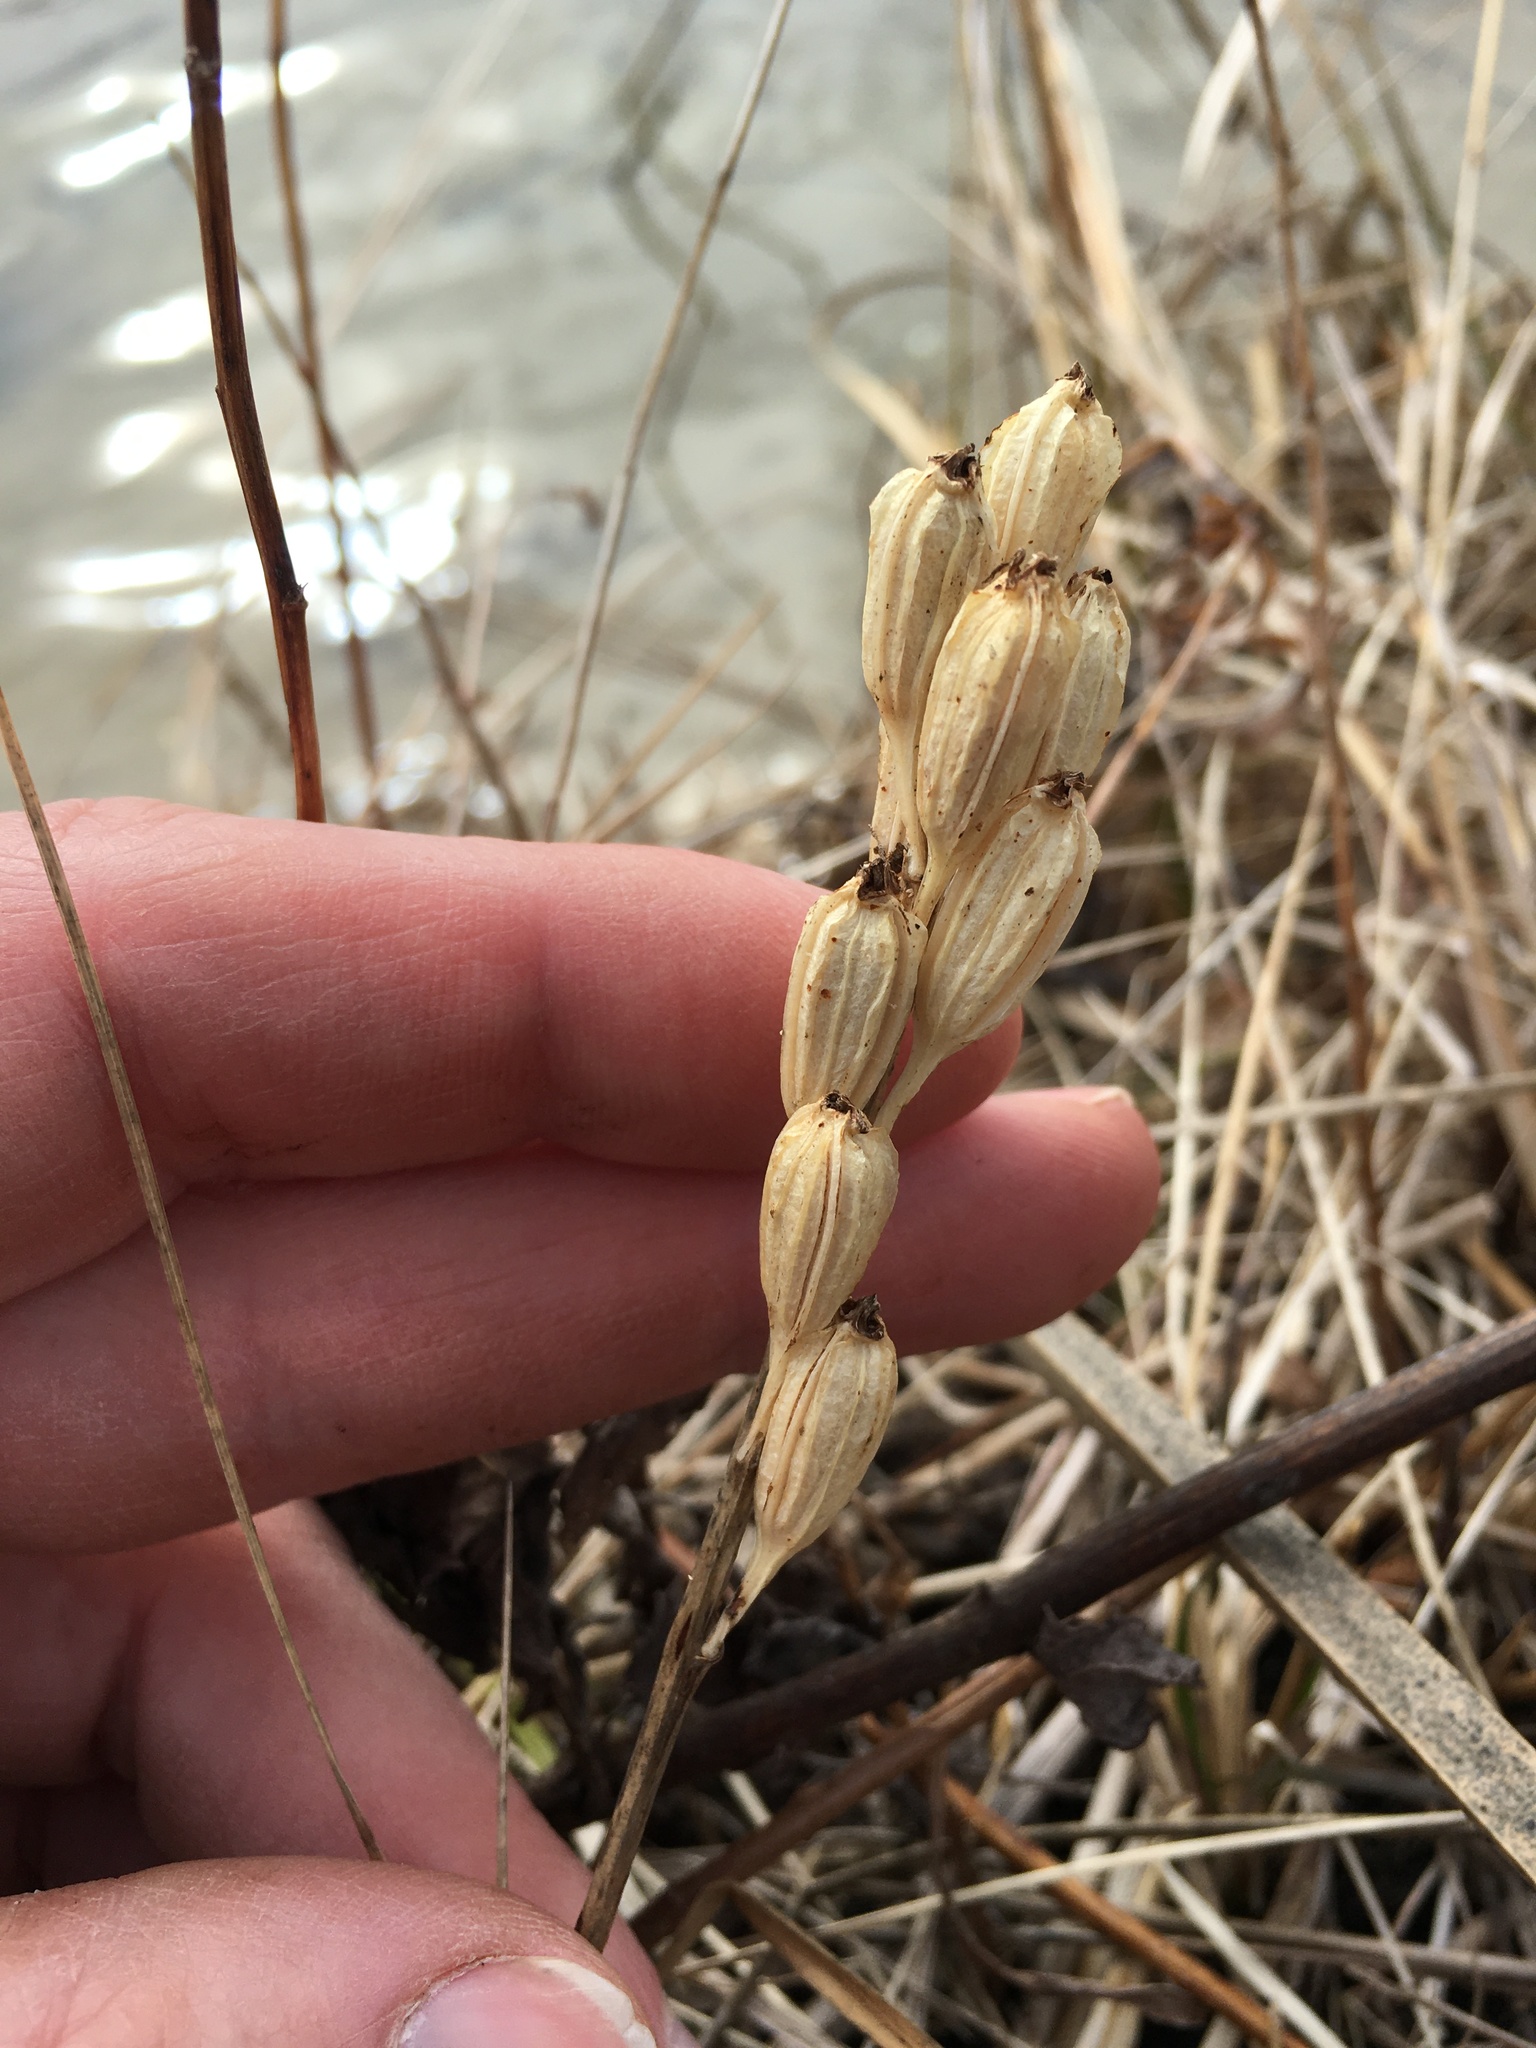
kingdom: Animalia
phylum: Arthropoda
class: Insecta
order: Coleoptera
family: Curculionidae
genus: Liparis
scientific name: Liparis loeselii
